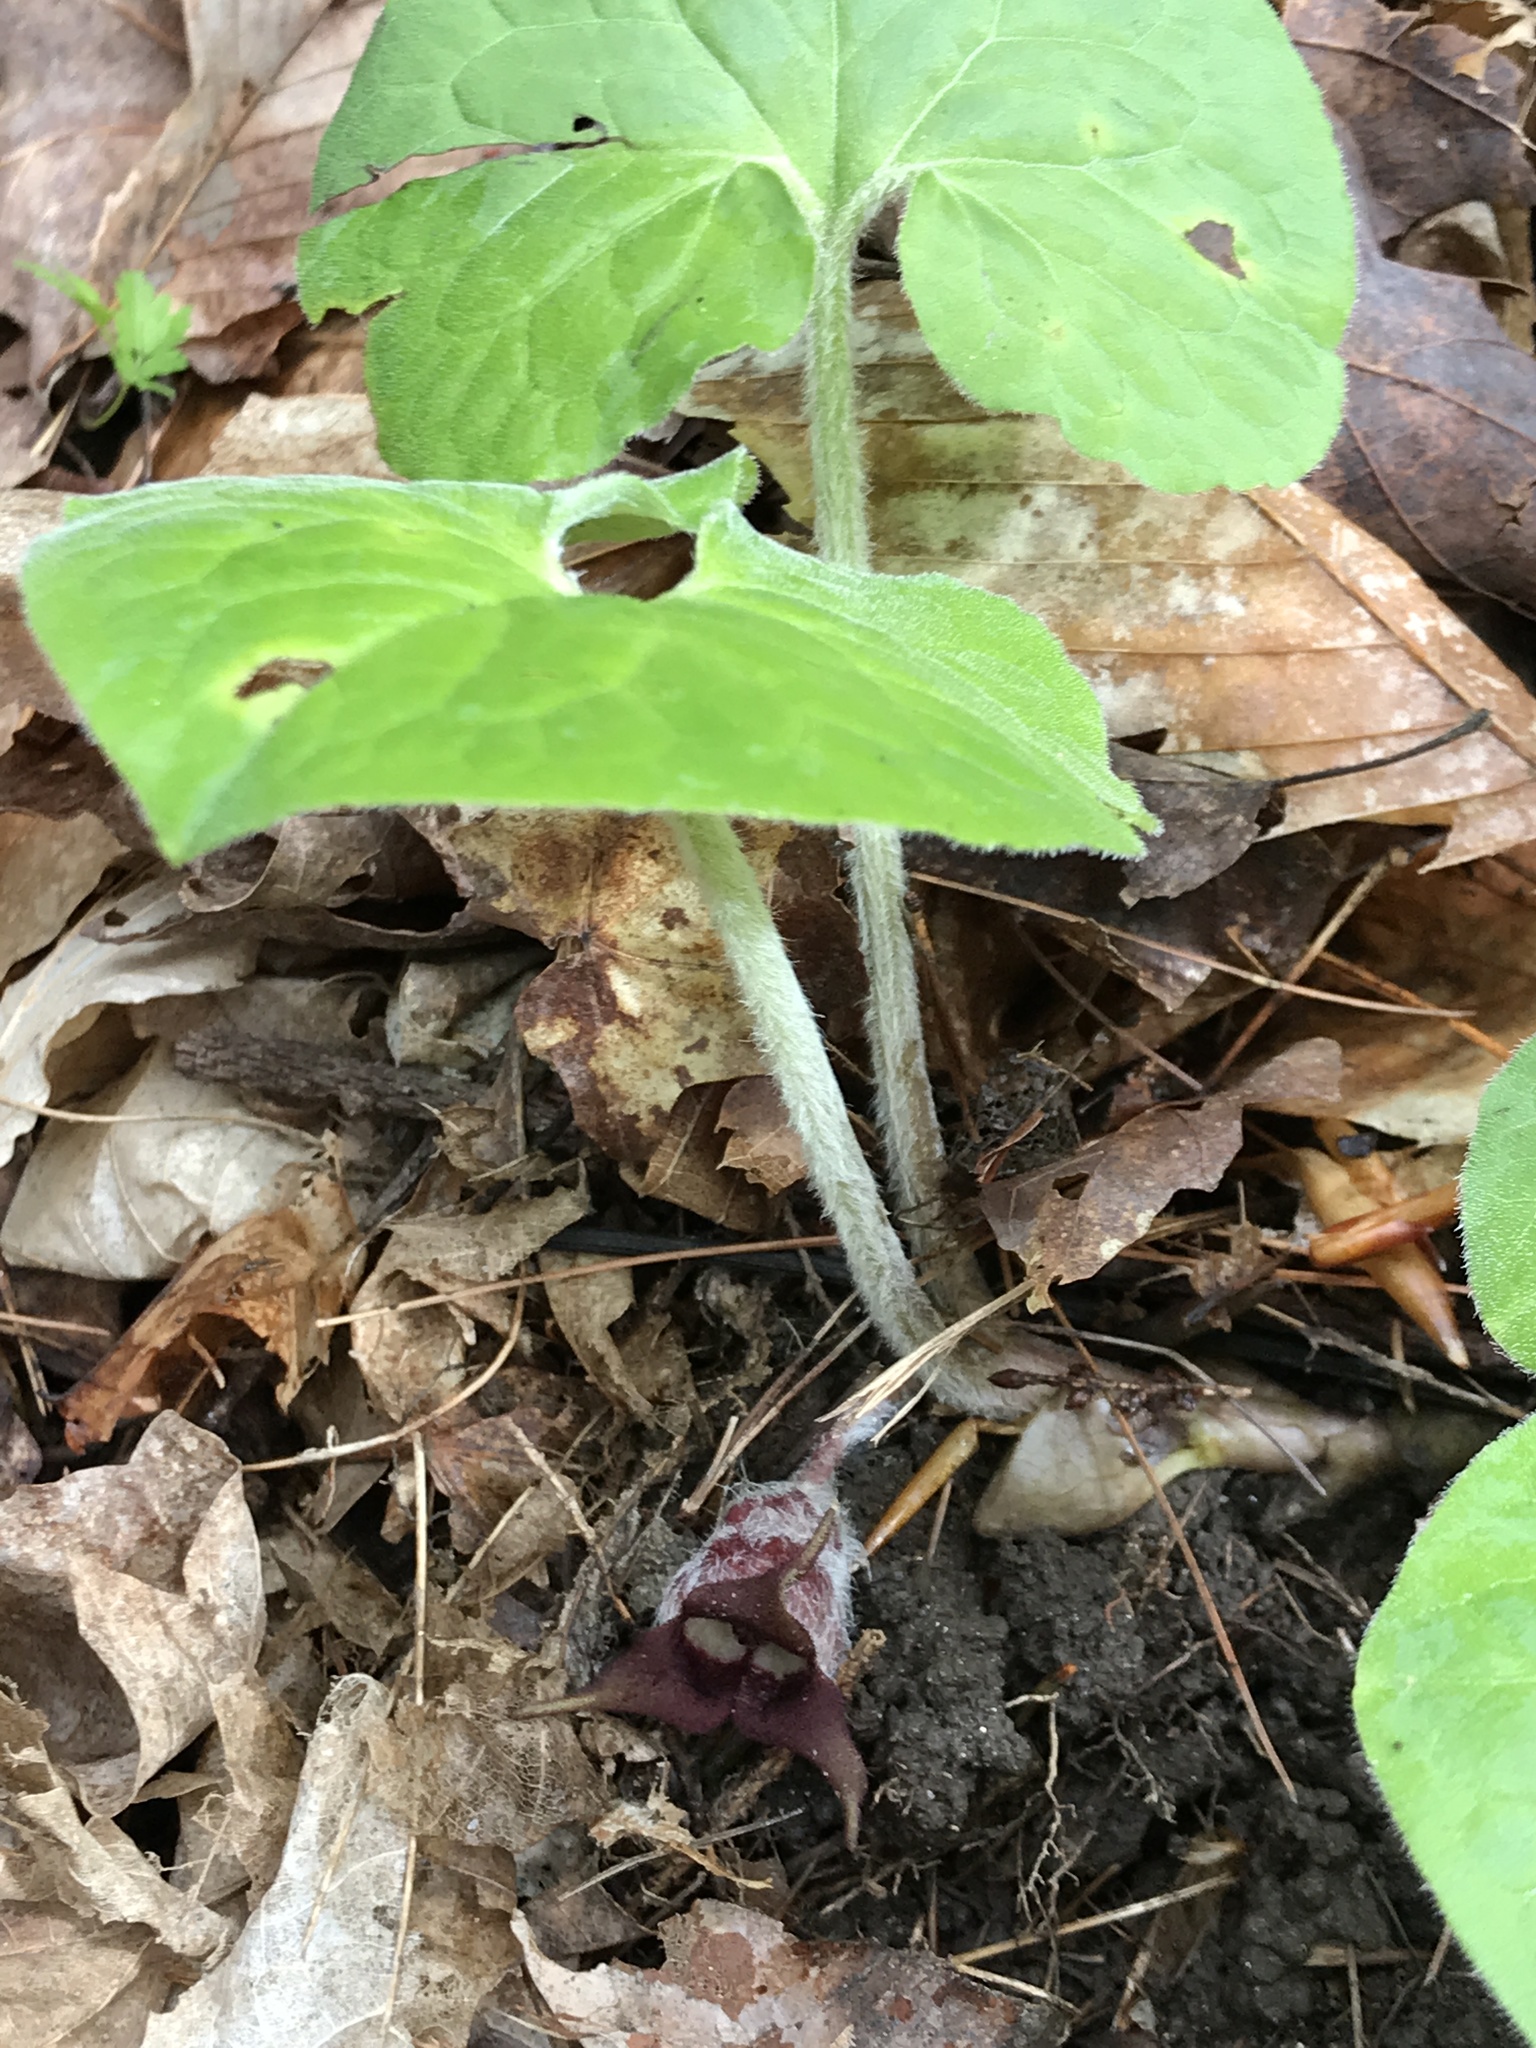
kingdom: Plantae
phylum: Tracheophyta
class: Magnoliopsida
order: Piperales
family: Aristolochiaceae
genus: Asarum
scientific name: Asarum canadense
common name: Wild ginger
